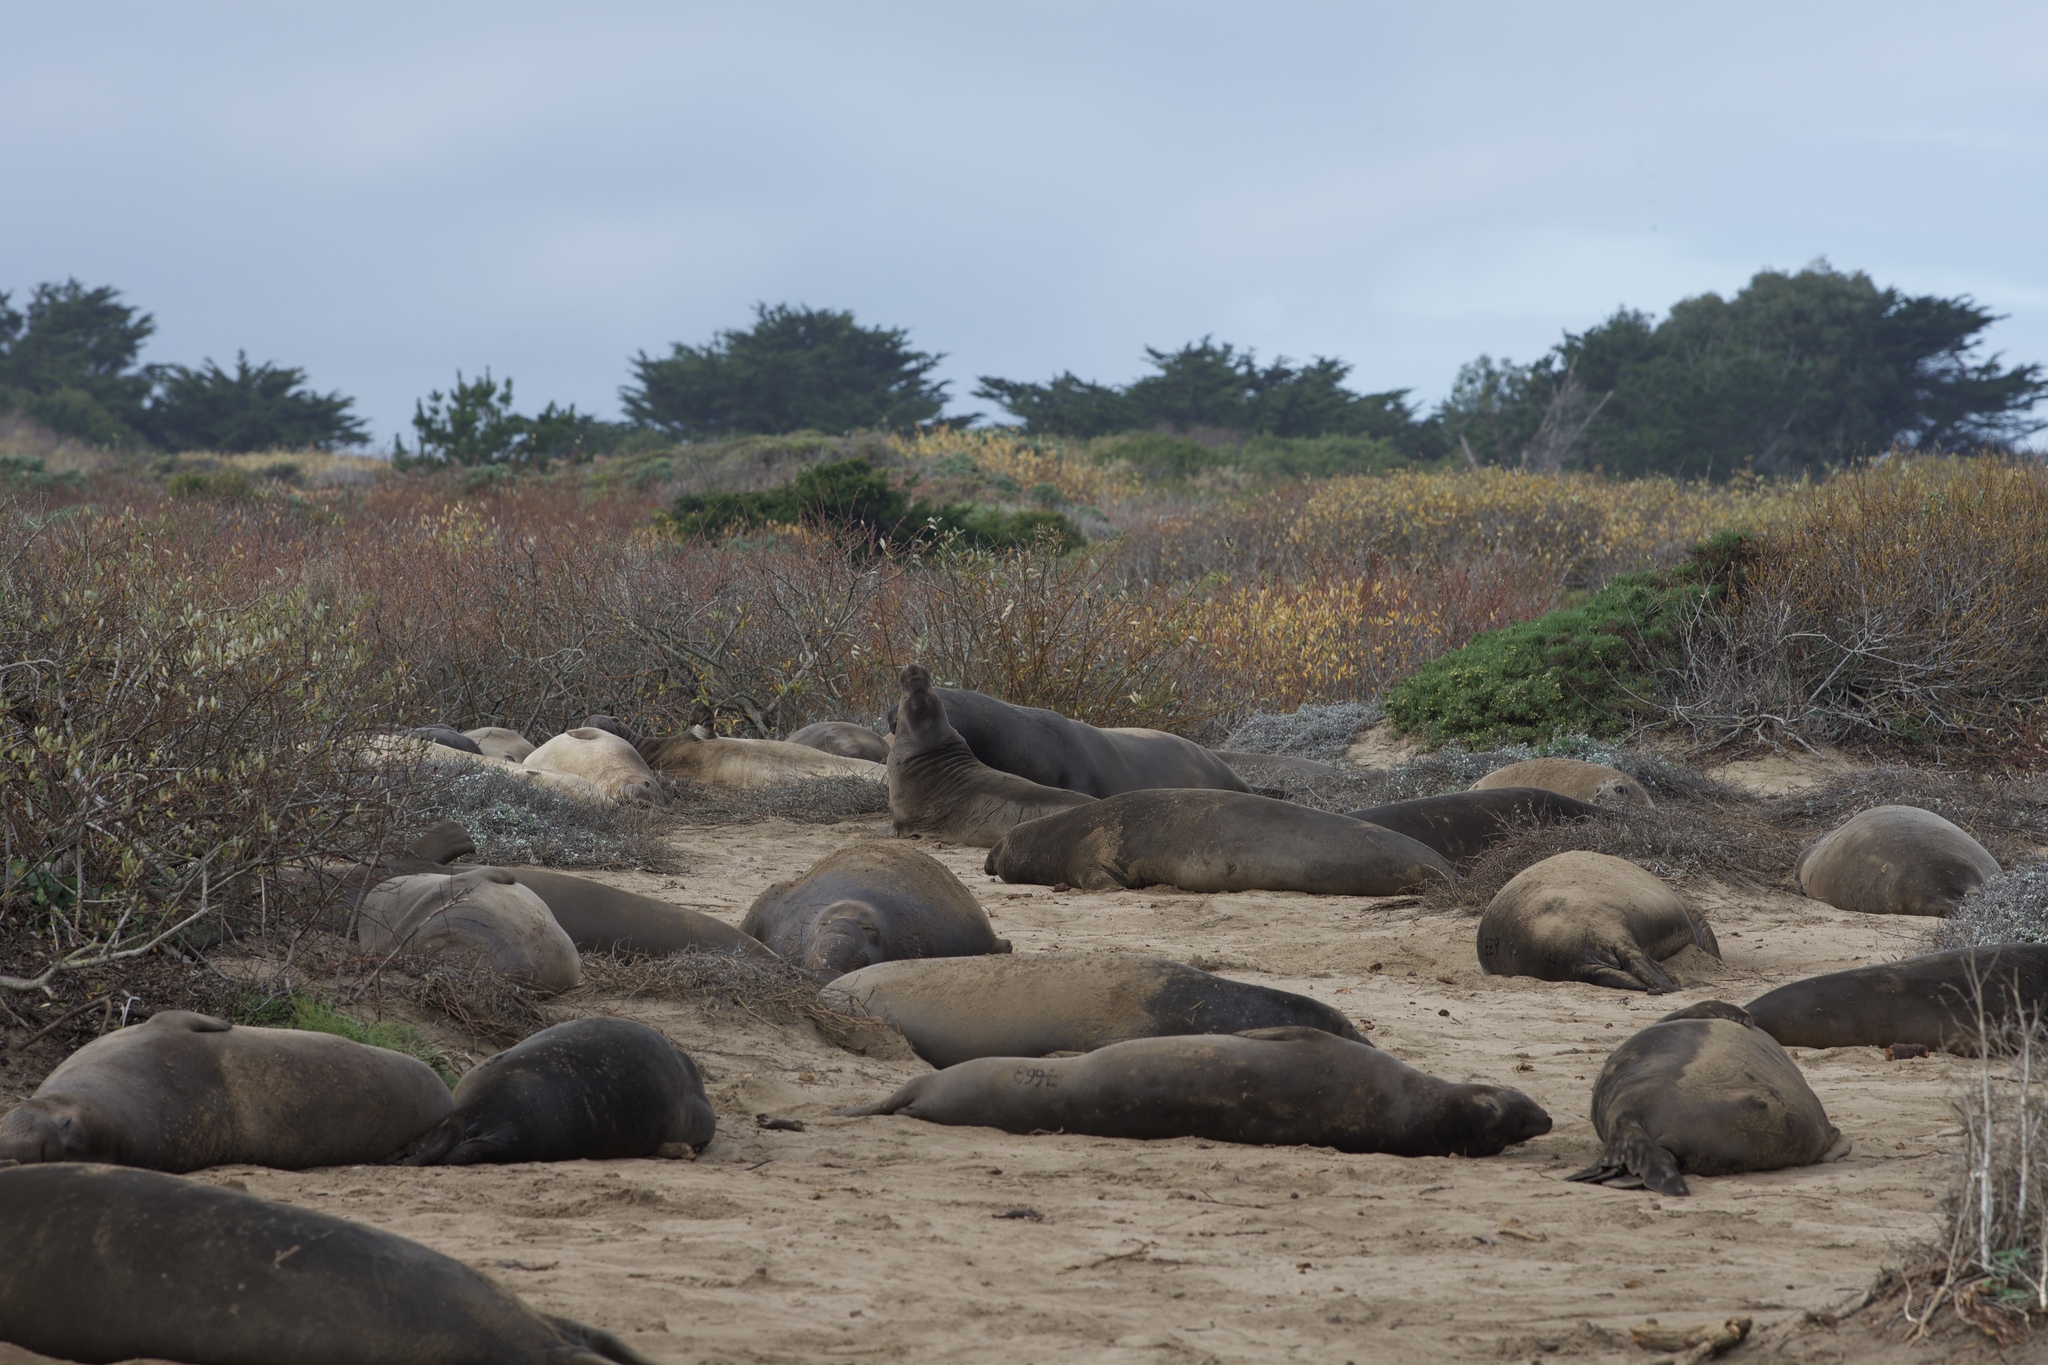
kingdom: Animalia
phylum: Chordata
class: Mammalia
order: Carnivora
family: Phocidae
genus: Mirounga
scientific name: Mirounga angustirostris
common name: Northern elephant seal
